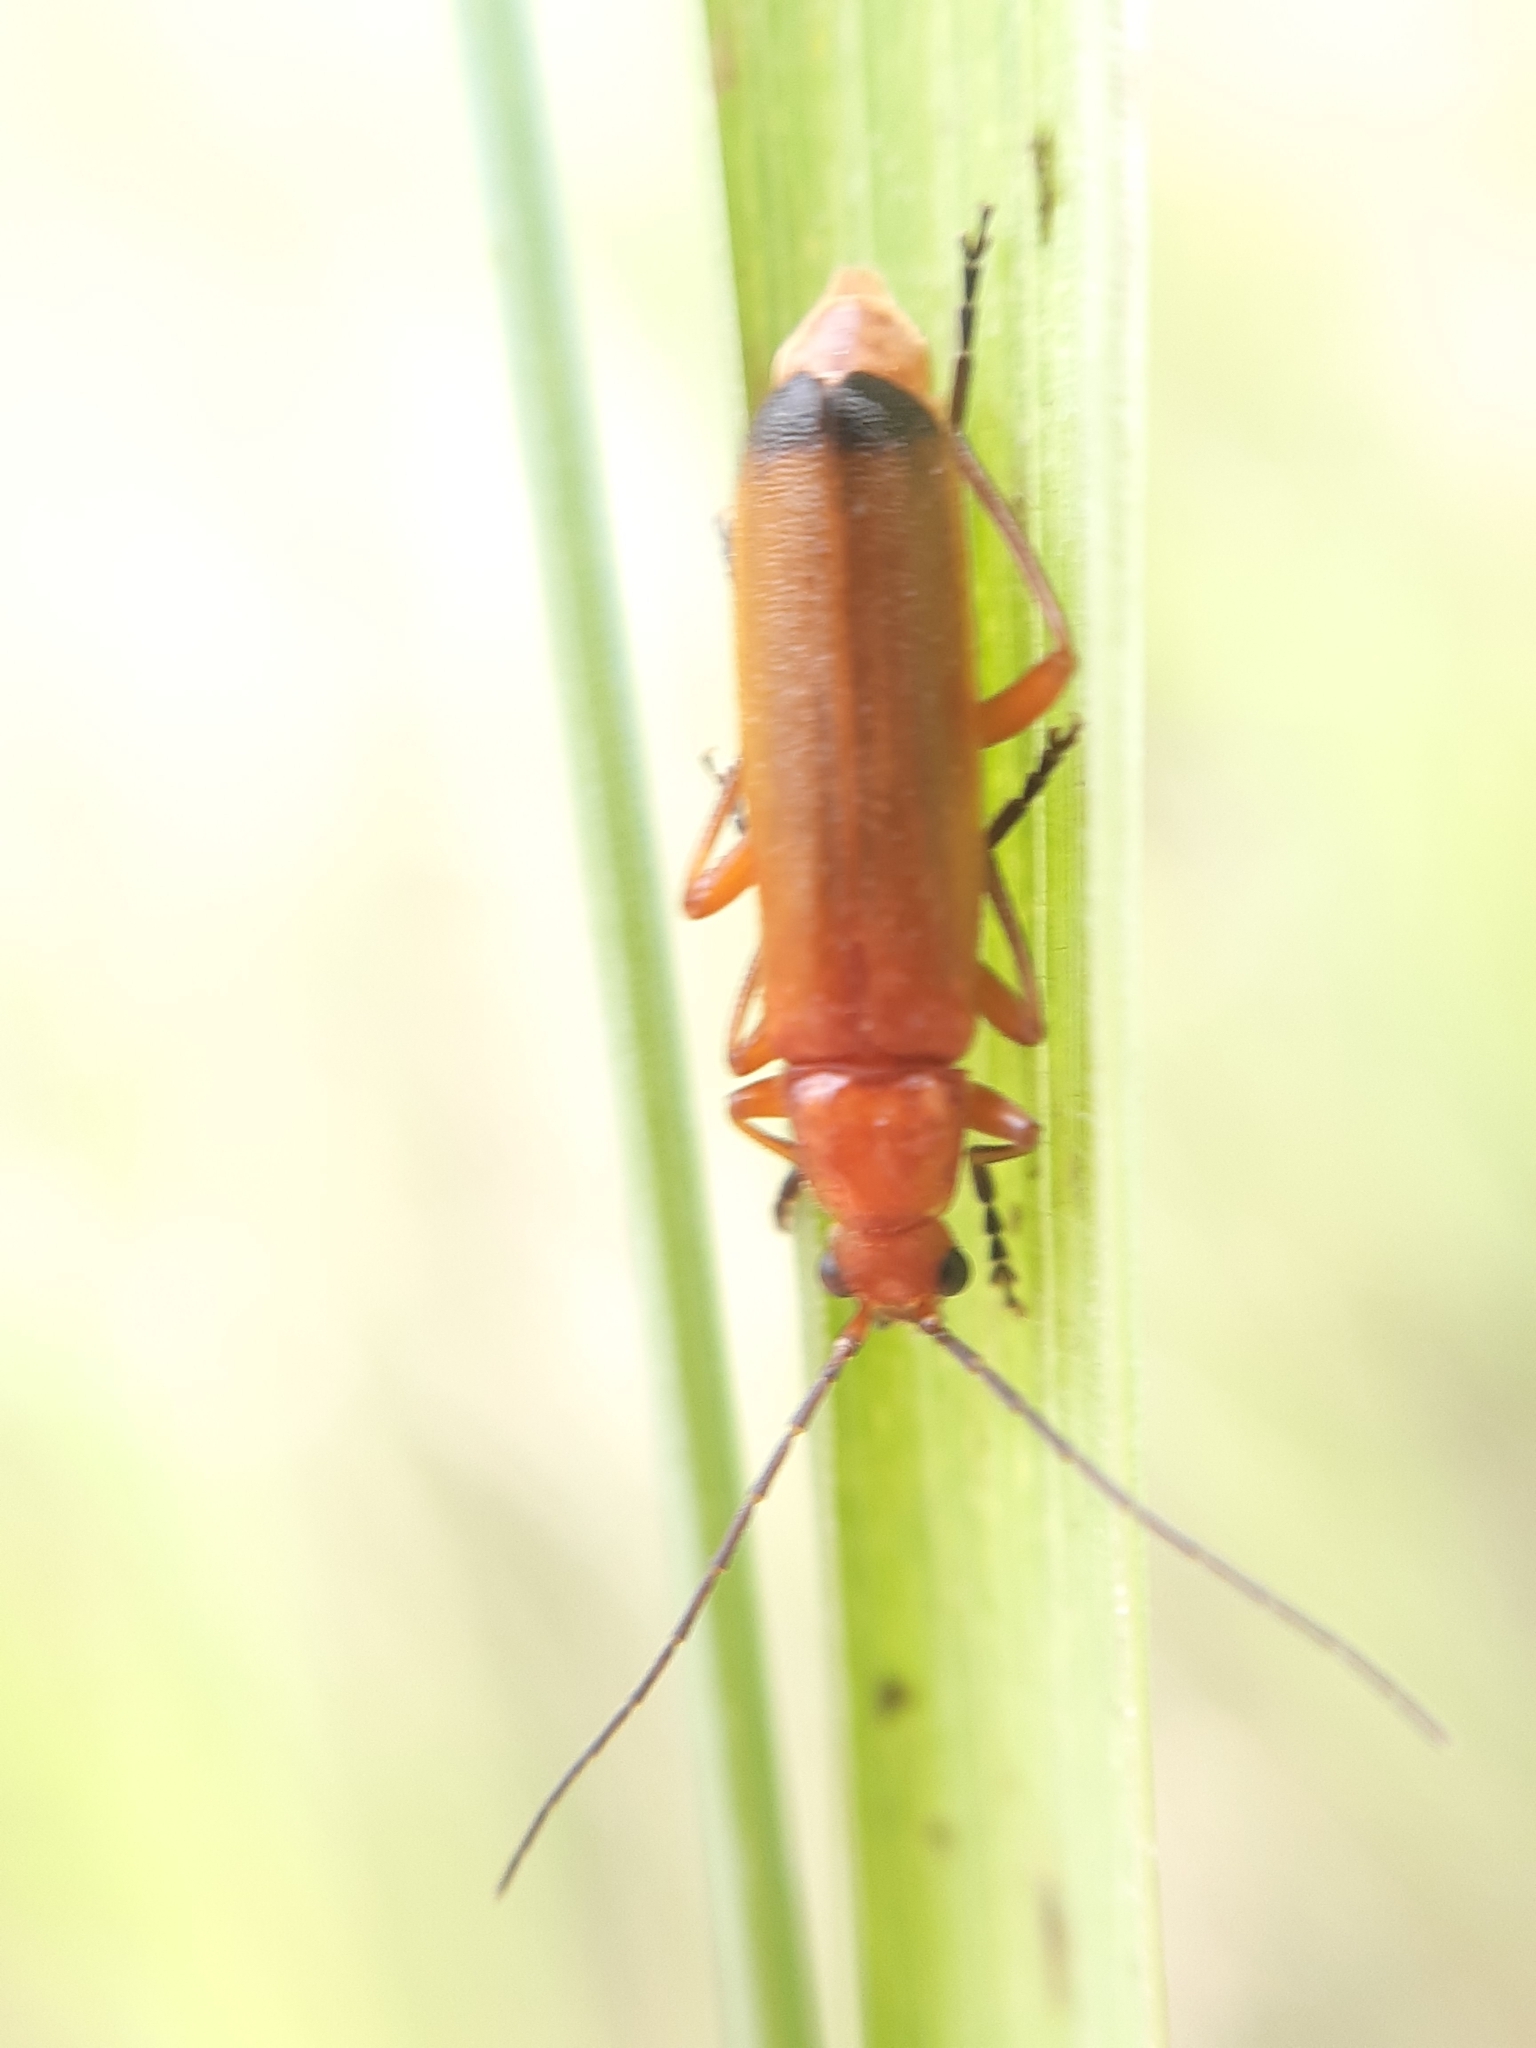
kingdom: Animalia
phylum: Arthropoda
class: Insecta
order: Coleoptera
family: Cantharidae
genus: Rhagonycha
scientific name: Rhagonycha fulva
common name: Common red soldier beetle
